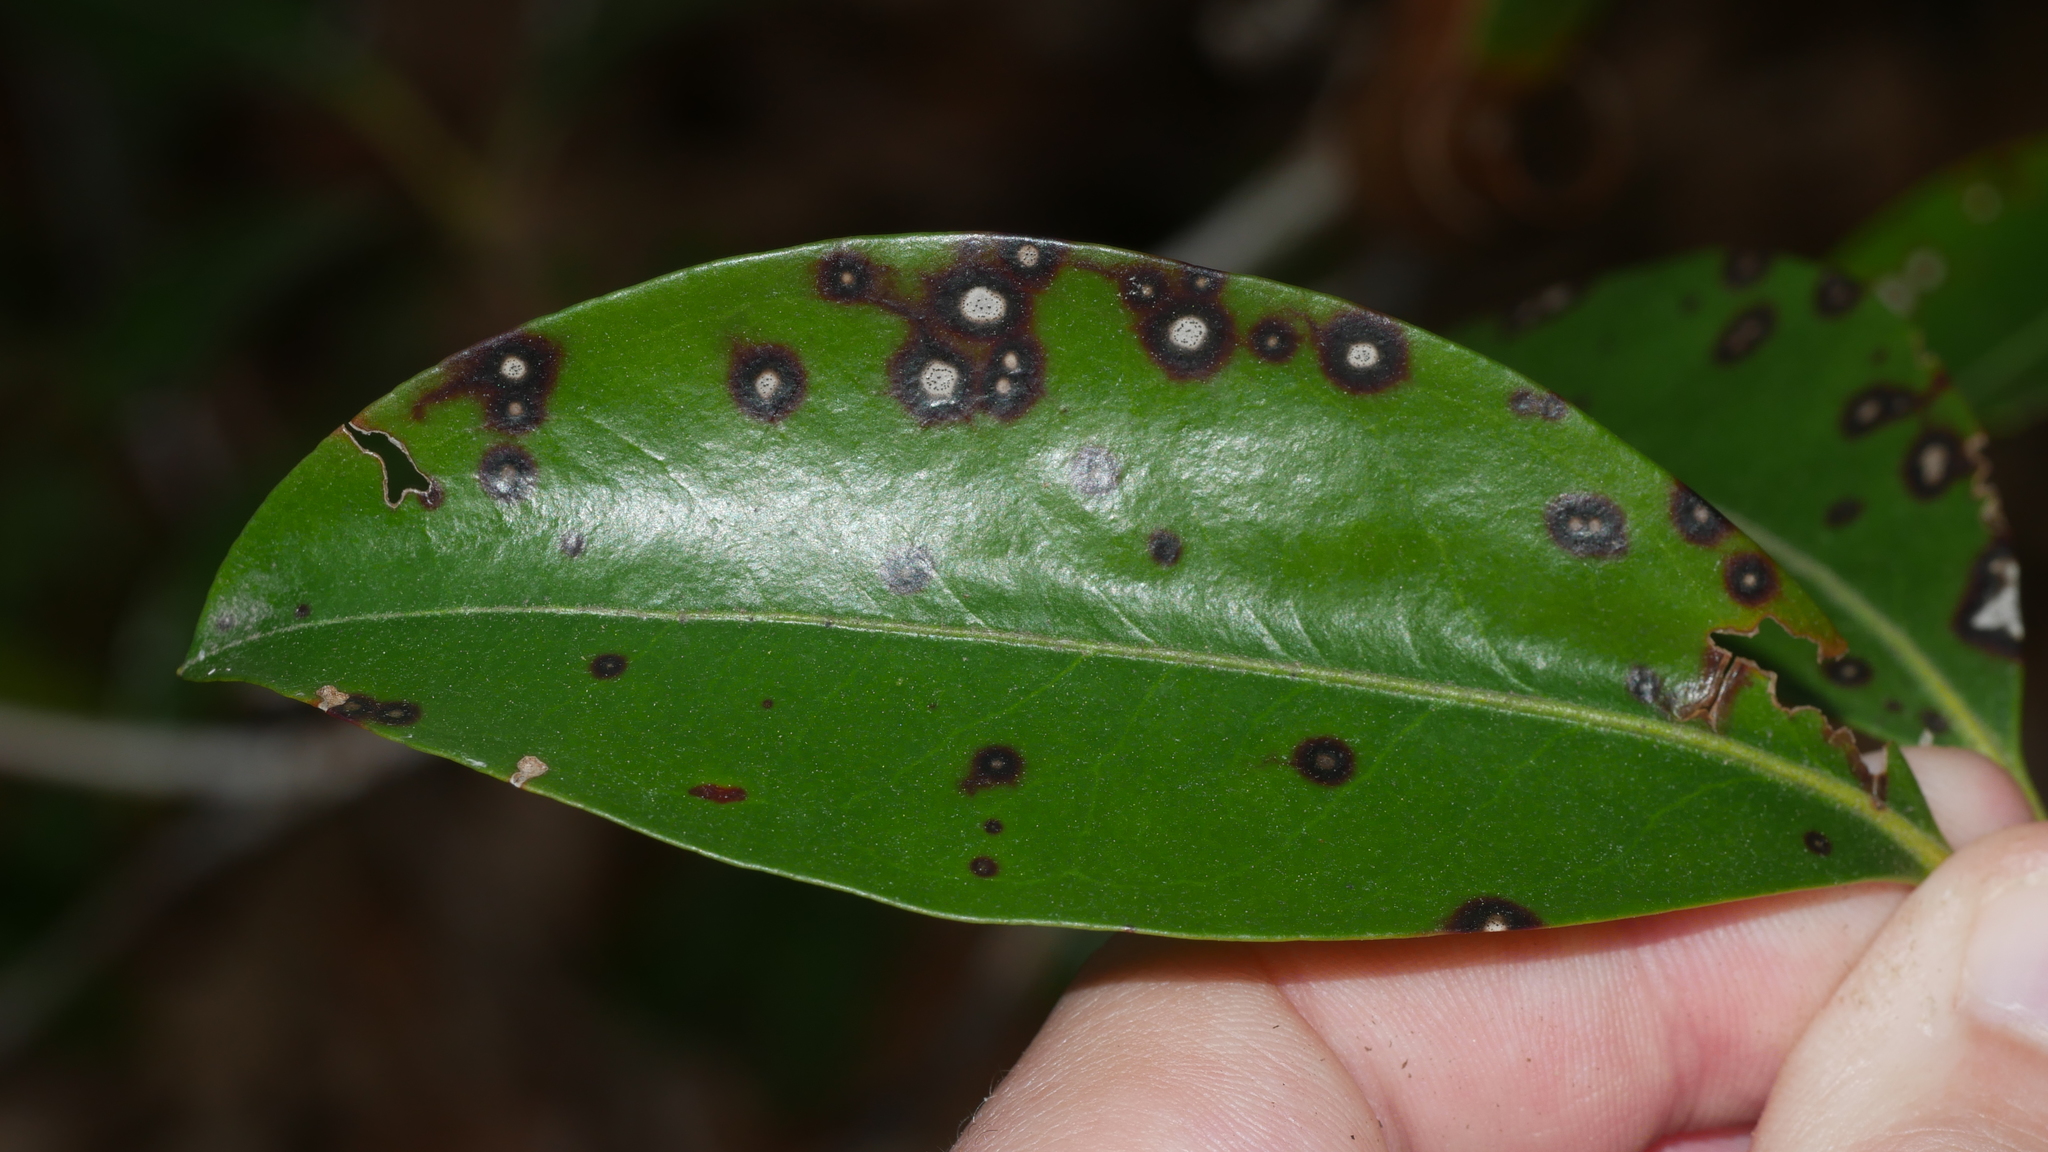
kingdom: Fungi
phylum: Ascomycota
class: Dothideomycetes
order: Mycosphaerellales
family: Mycosphaerellaceae
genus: Mycosphaerella
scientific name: Mycosphaerella colorata
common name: Mountain laurel leaf spot
